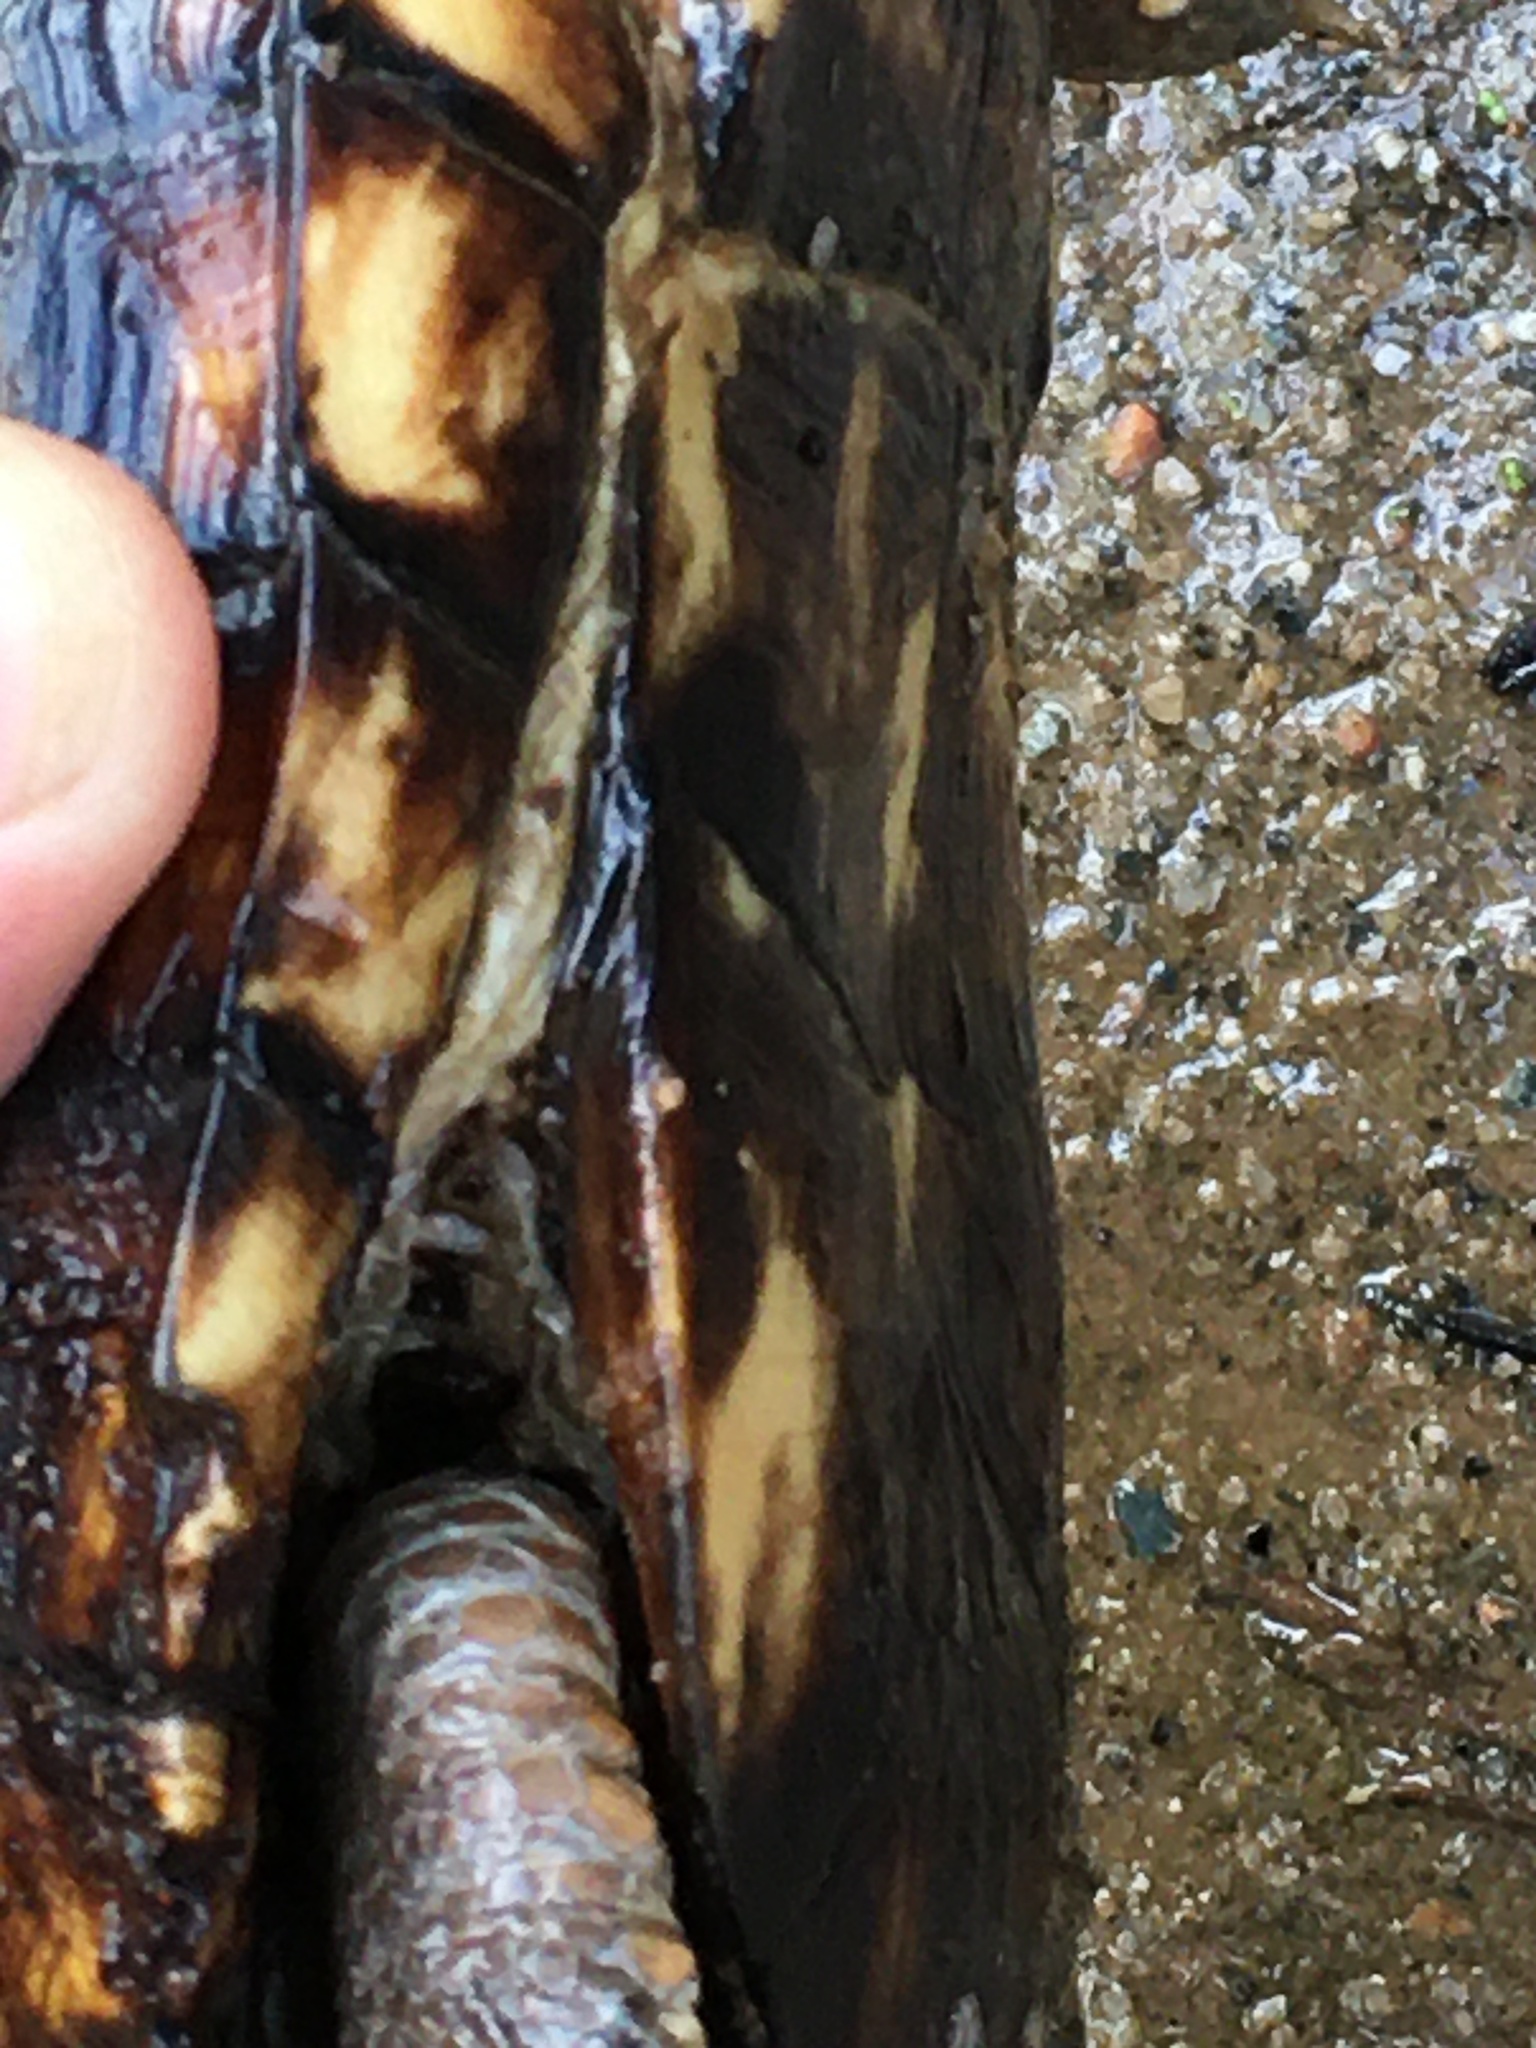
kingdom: Animalia
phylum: Chordata
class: Testudines
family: Emydidae
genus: Terrapene
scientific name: Terrapene carolina
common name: Common box turtle
